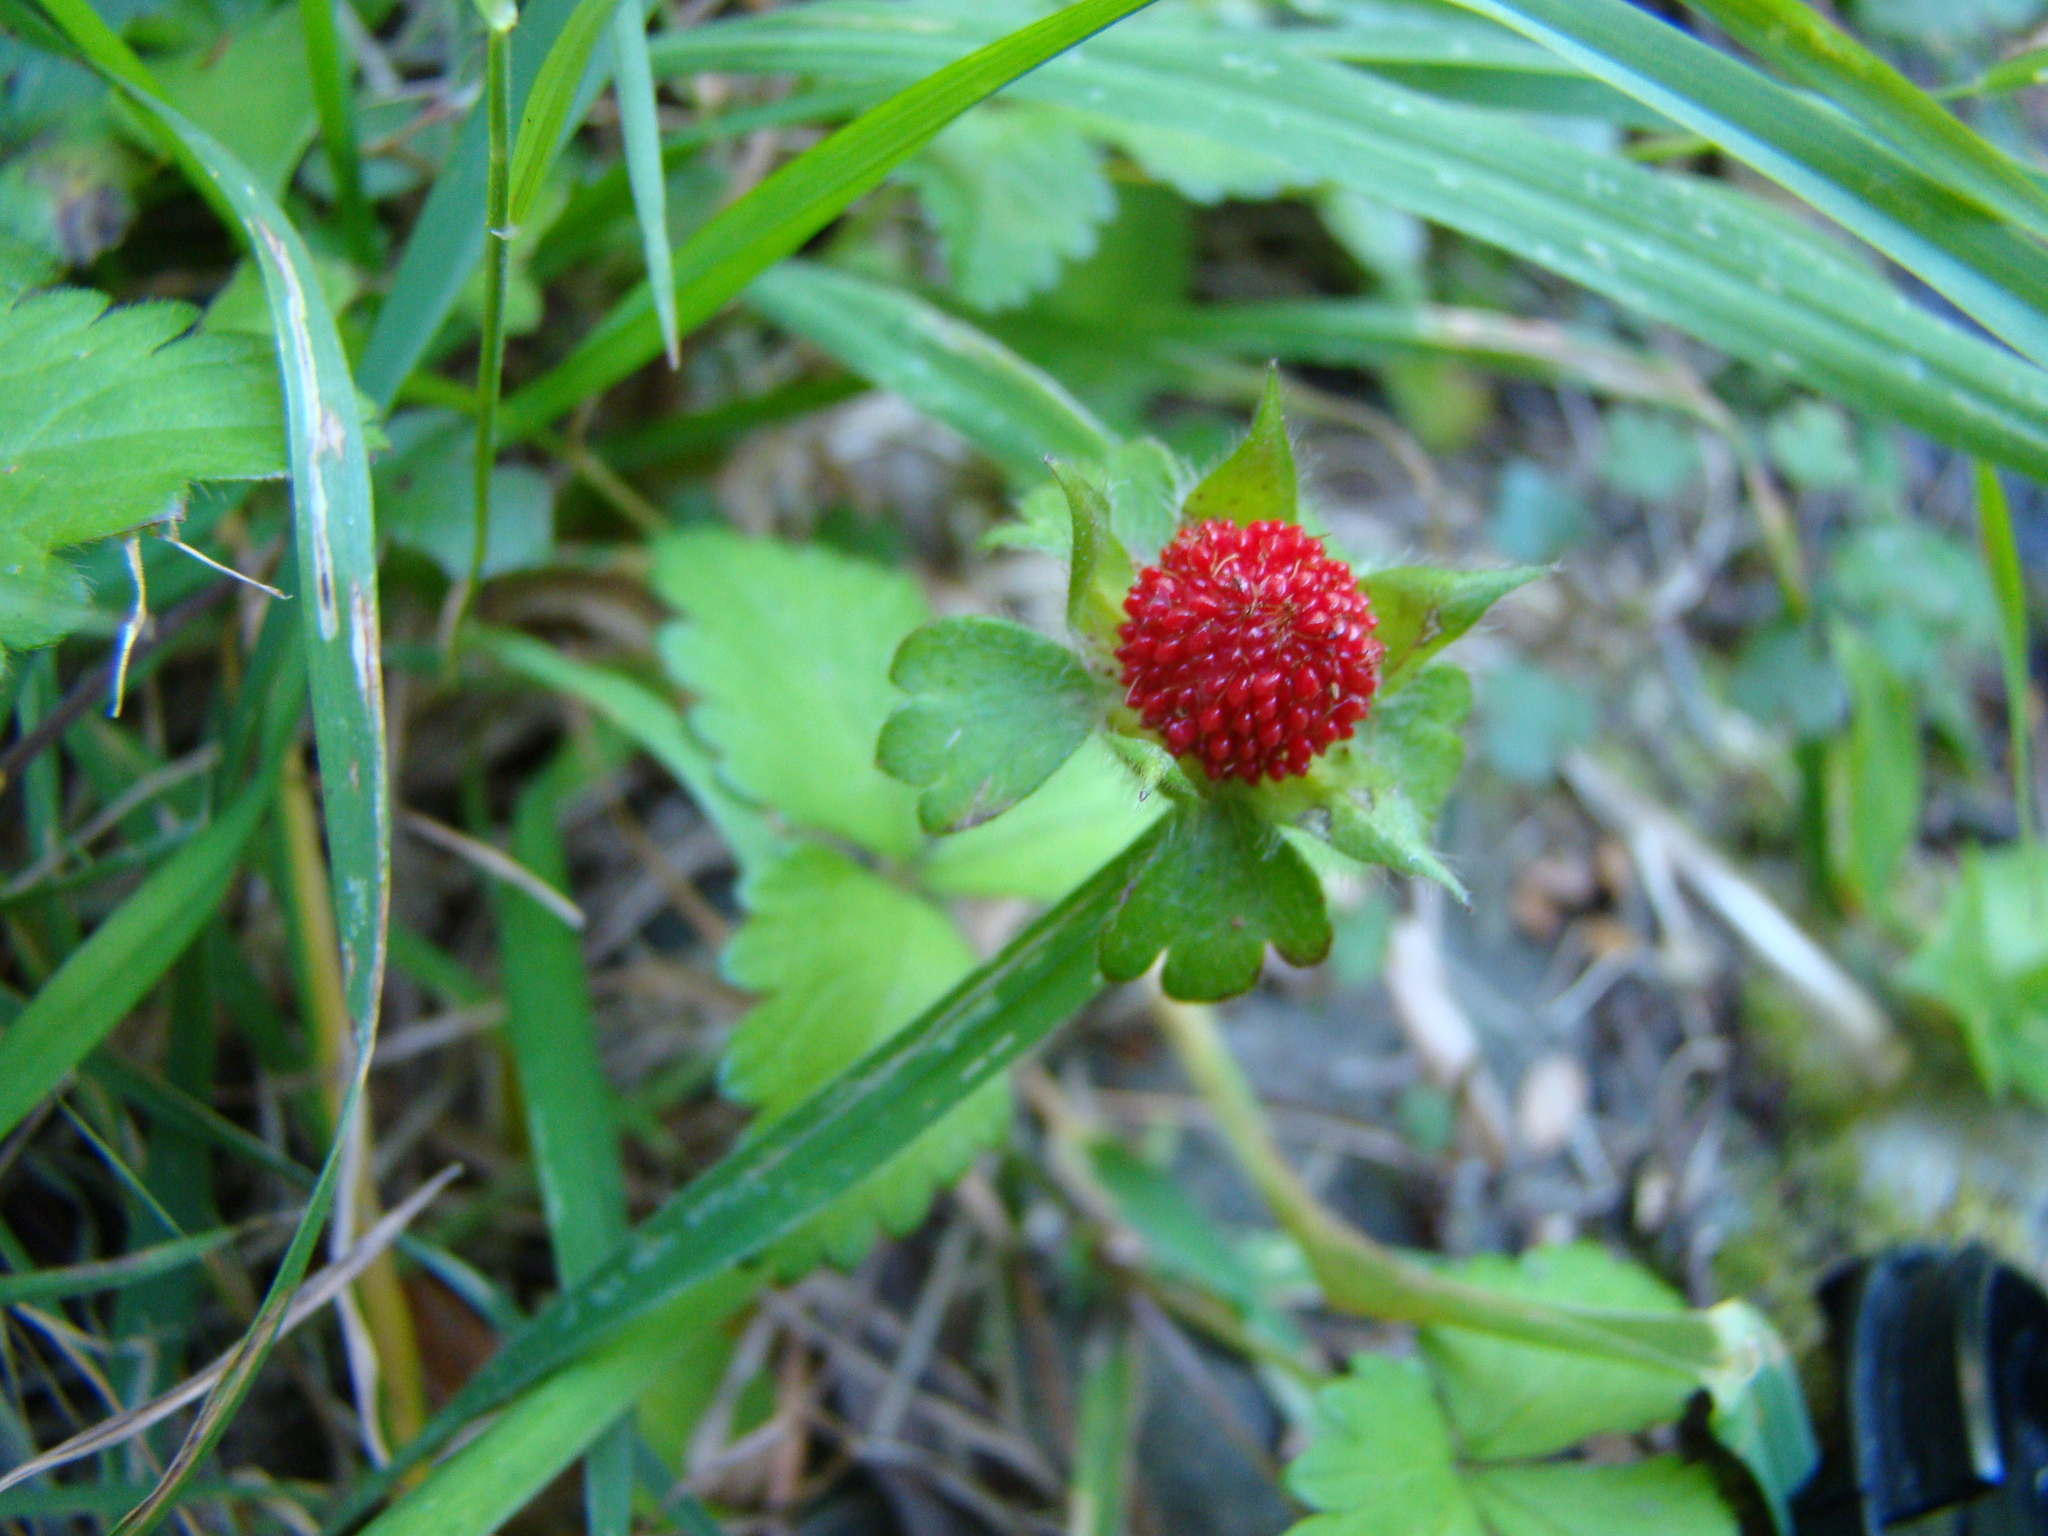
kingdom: Plantae
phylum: Tracheophyta
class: Magnoliopsida
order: Rosales
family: Rosaceae
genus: Potentilla
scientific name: Potentilla indica
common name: Yellow-flowered strawberry
